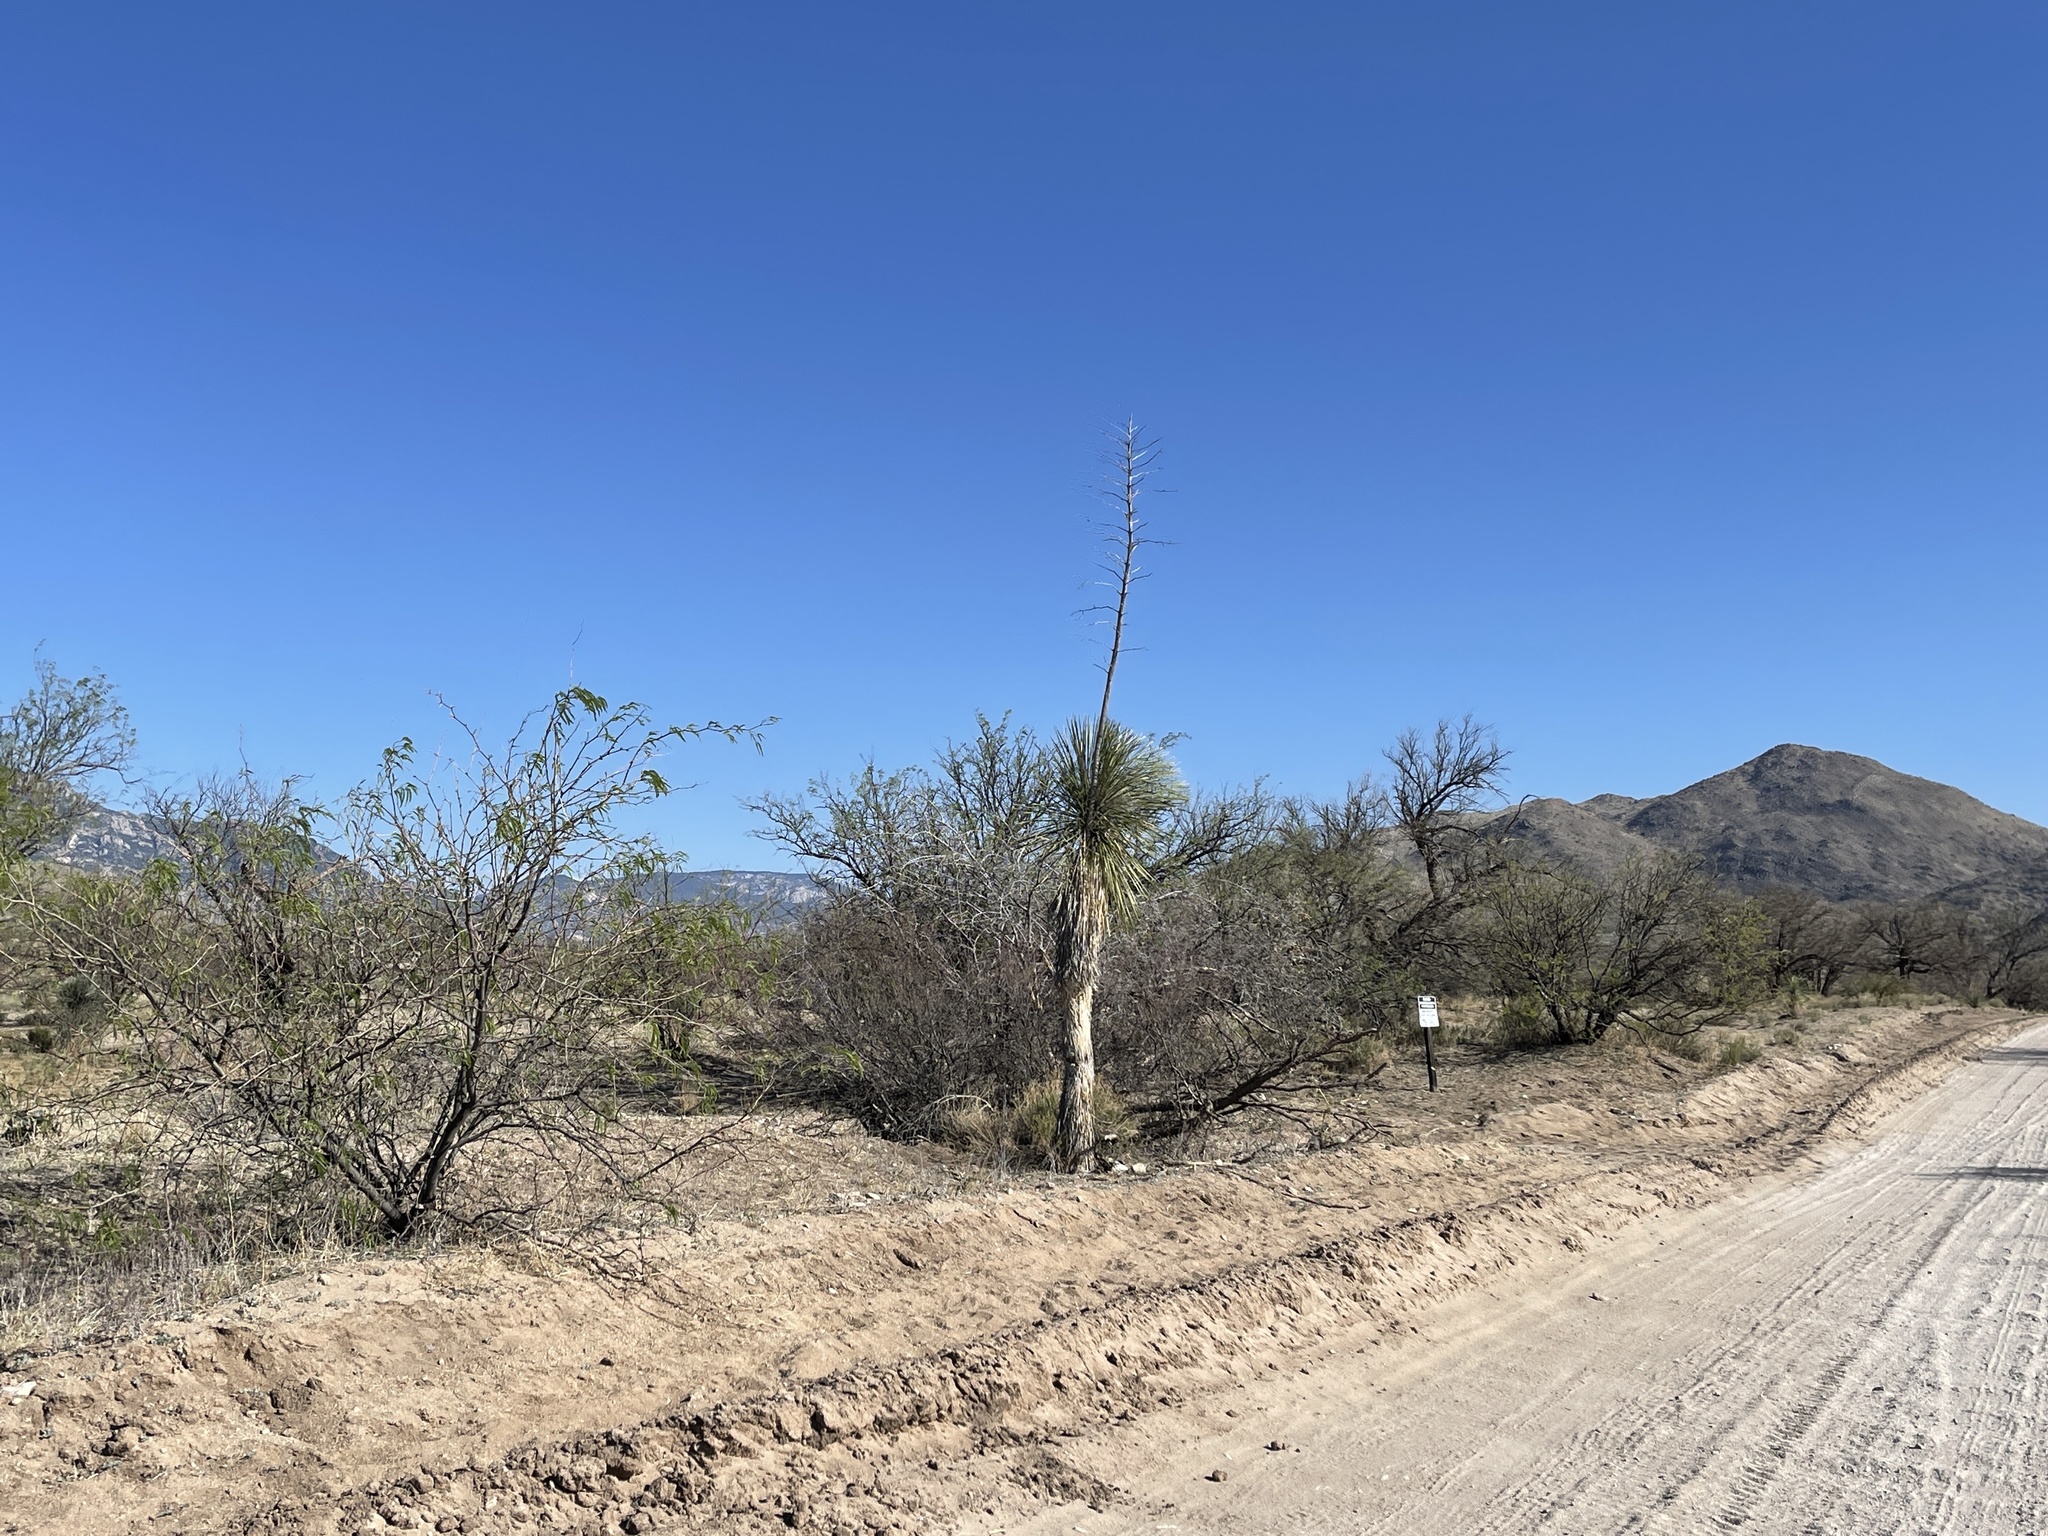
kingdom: Plantae
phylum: Tracheophyta
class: Liliopsida
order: Asparagales
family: Asparagaceae
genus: Yucca
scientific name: Yucca elata
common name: Palmella
